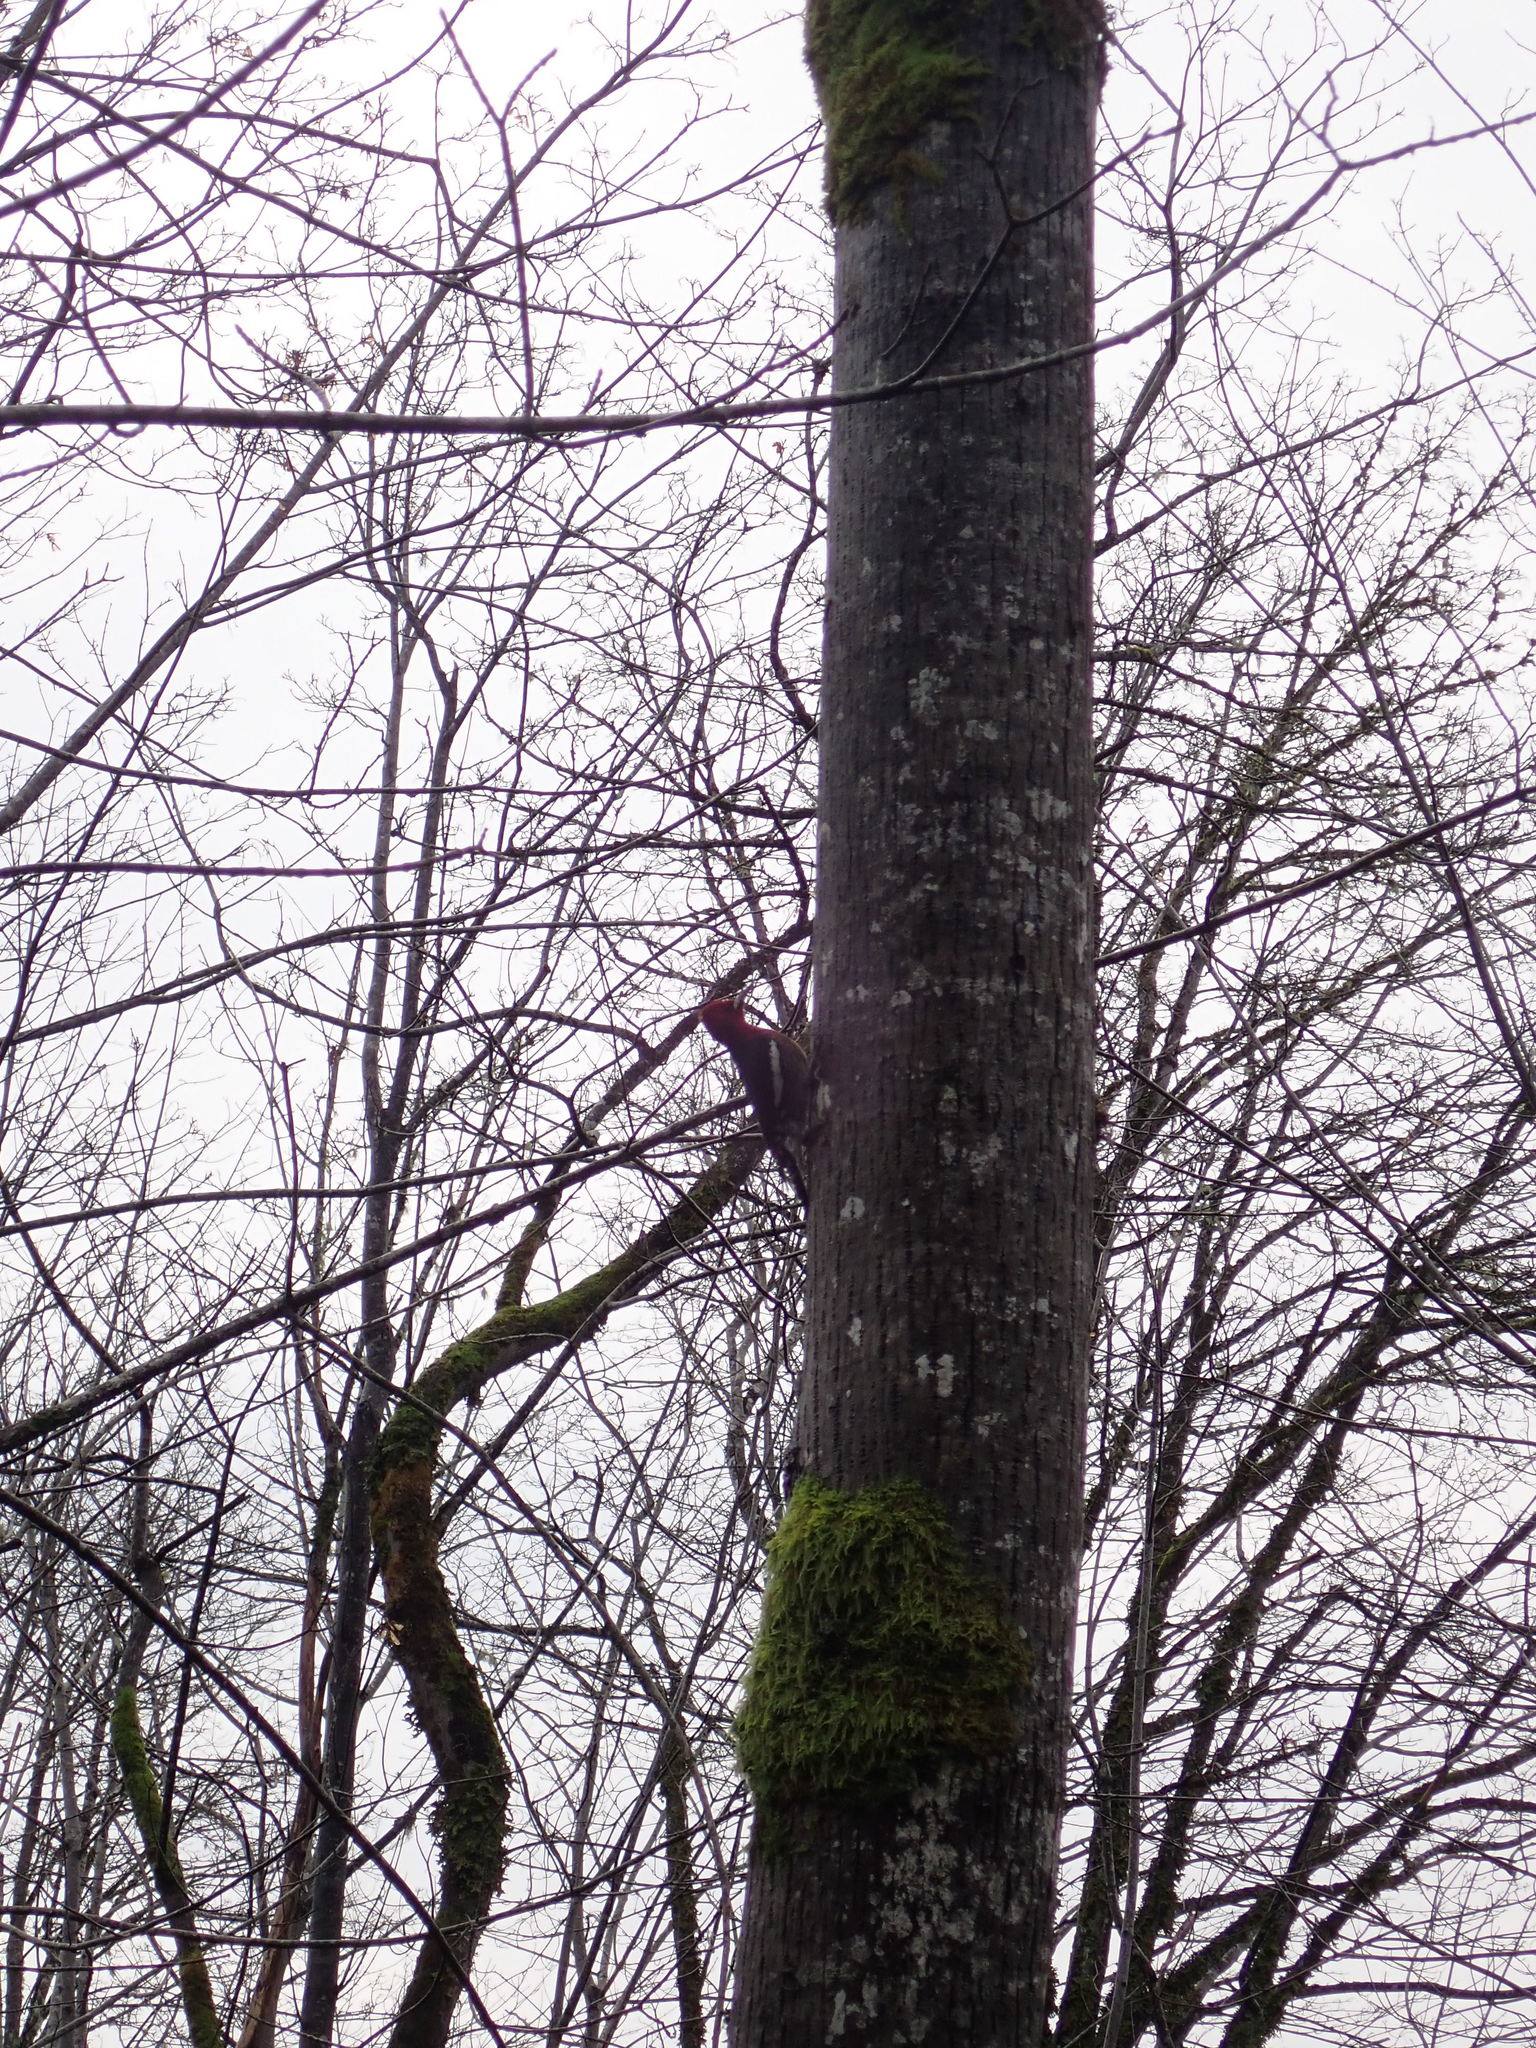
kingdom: Animalia
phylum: Chordata
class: Aves
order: Piciformes
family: Picidae
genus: Sphyrapicus
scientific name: Sphyrapicus ruber
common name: Red-breasted sapsucker
